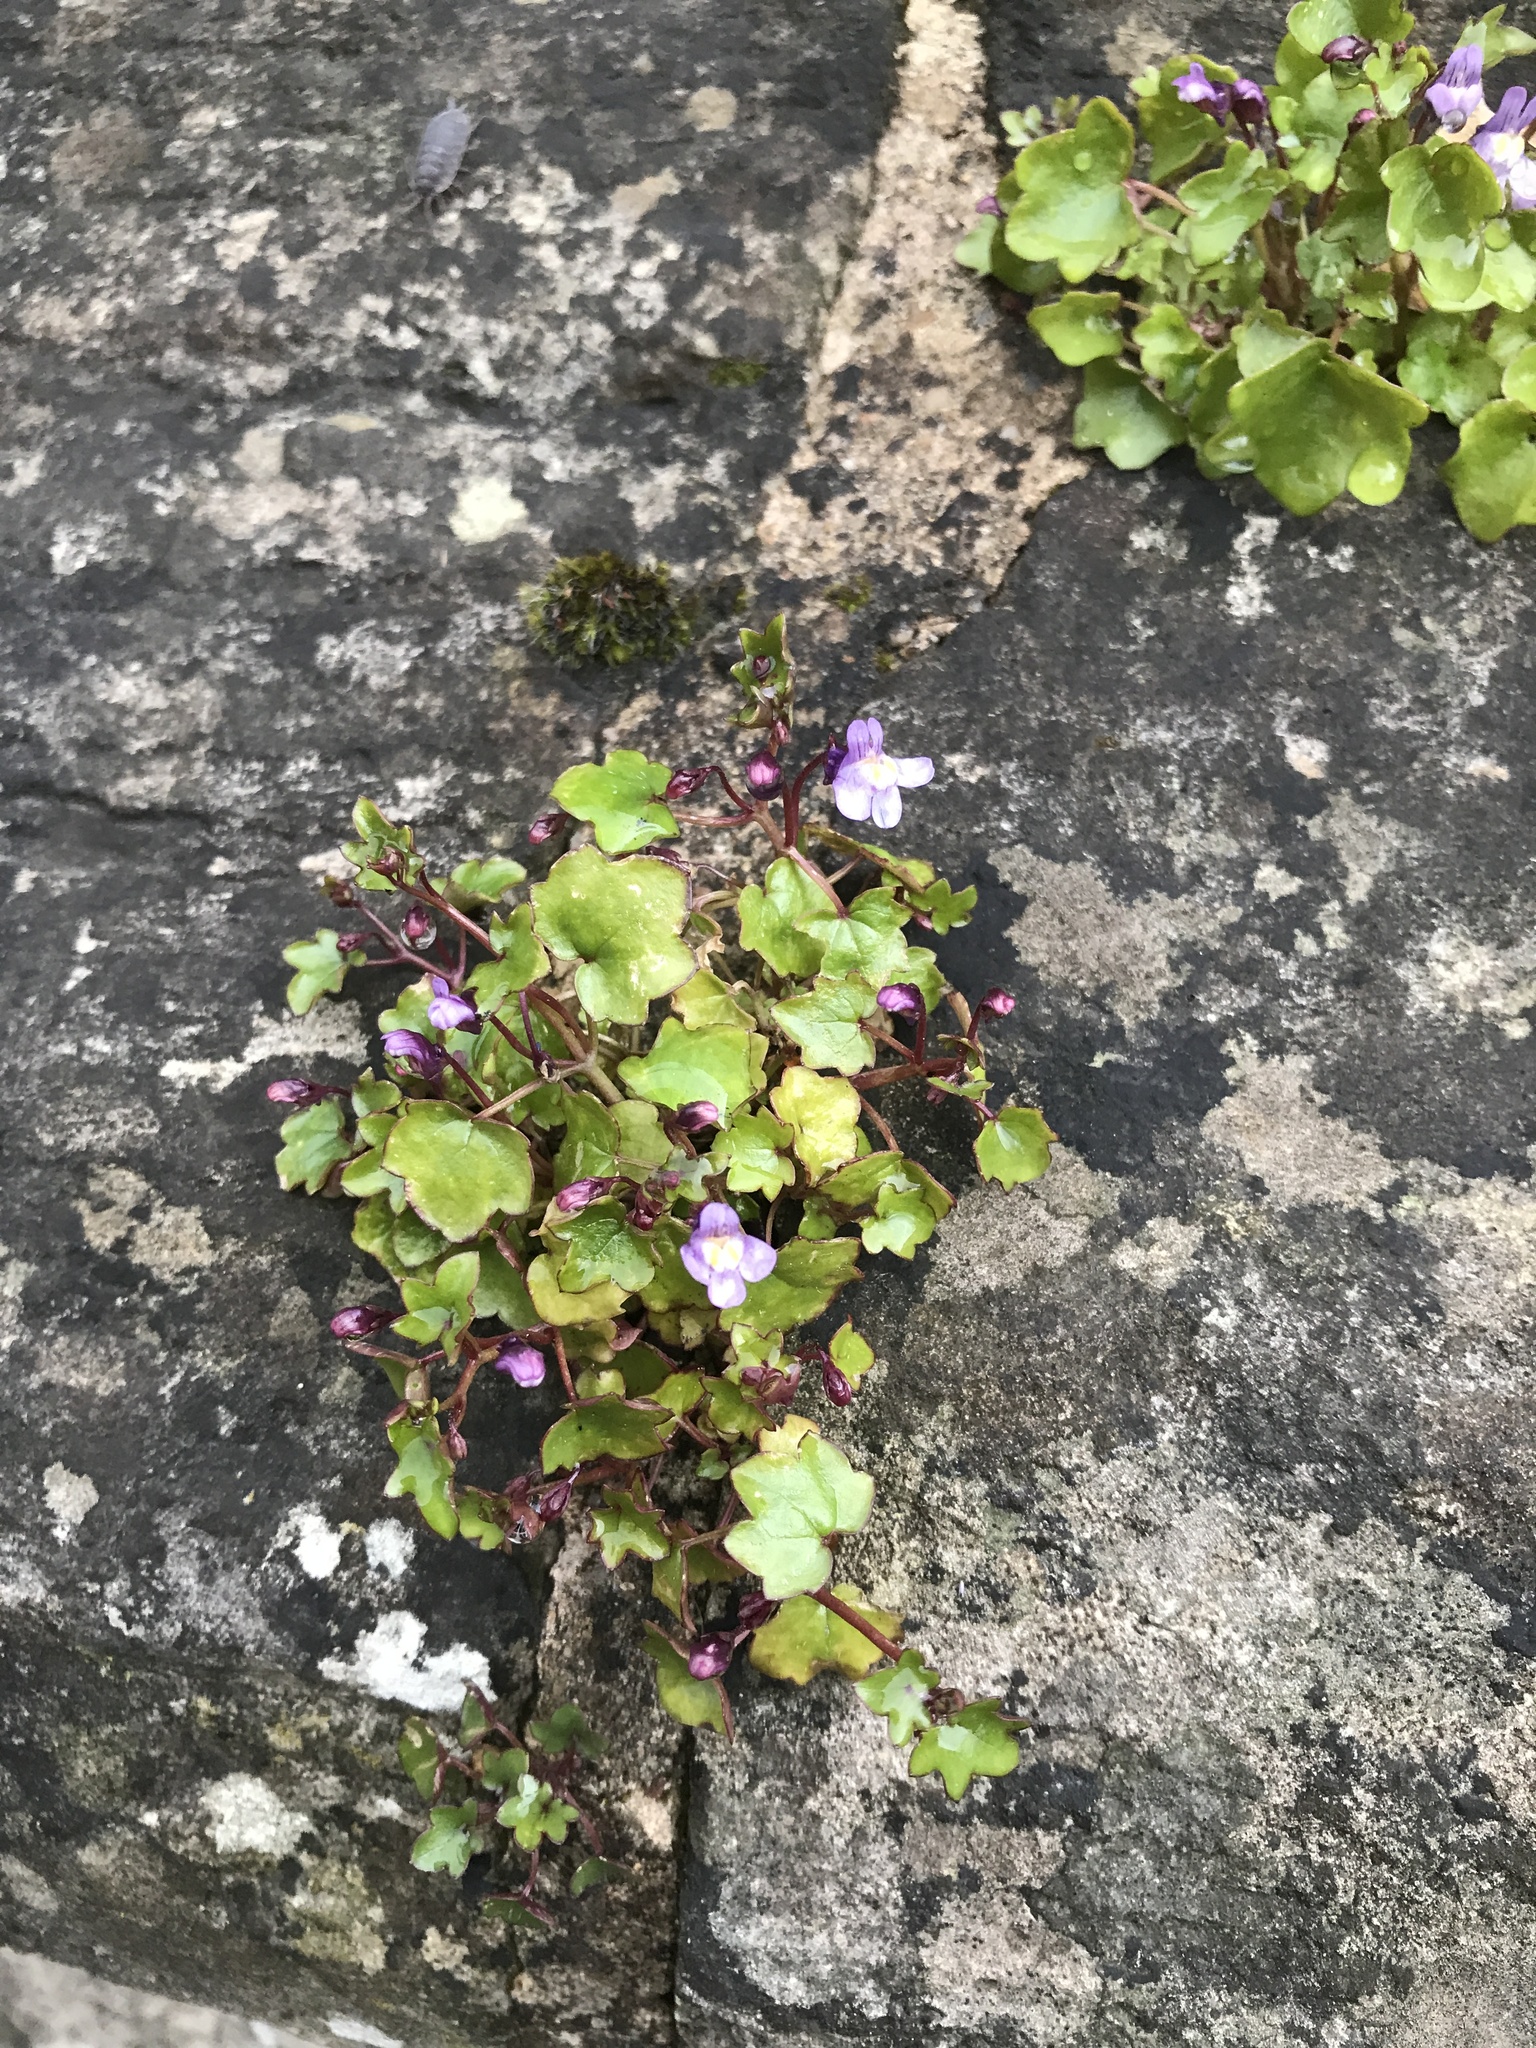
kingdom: Plantae
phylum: Tracheophyta
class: Magnoliopsida
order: Lamiales
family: Plantaginaceae
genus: Cymbalaria
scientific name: Cymbalaria muralis
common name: Ivy-leaved toadflax
